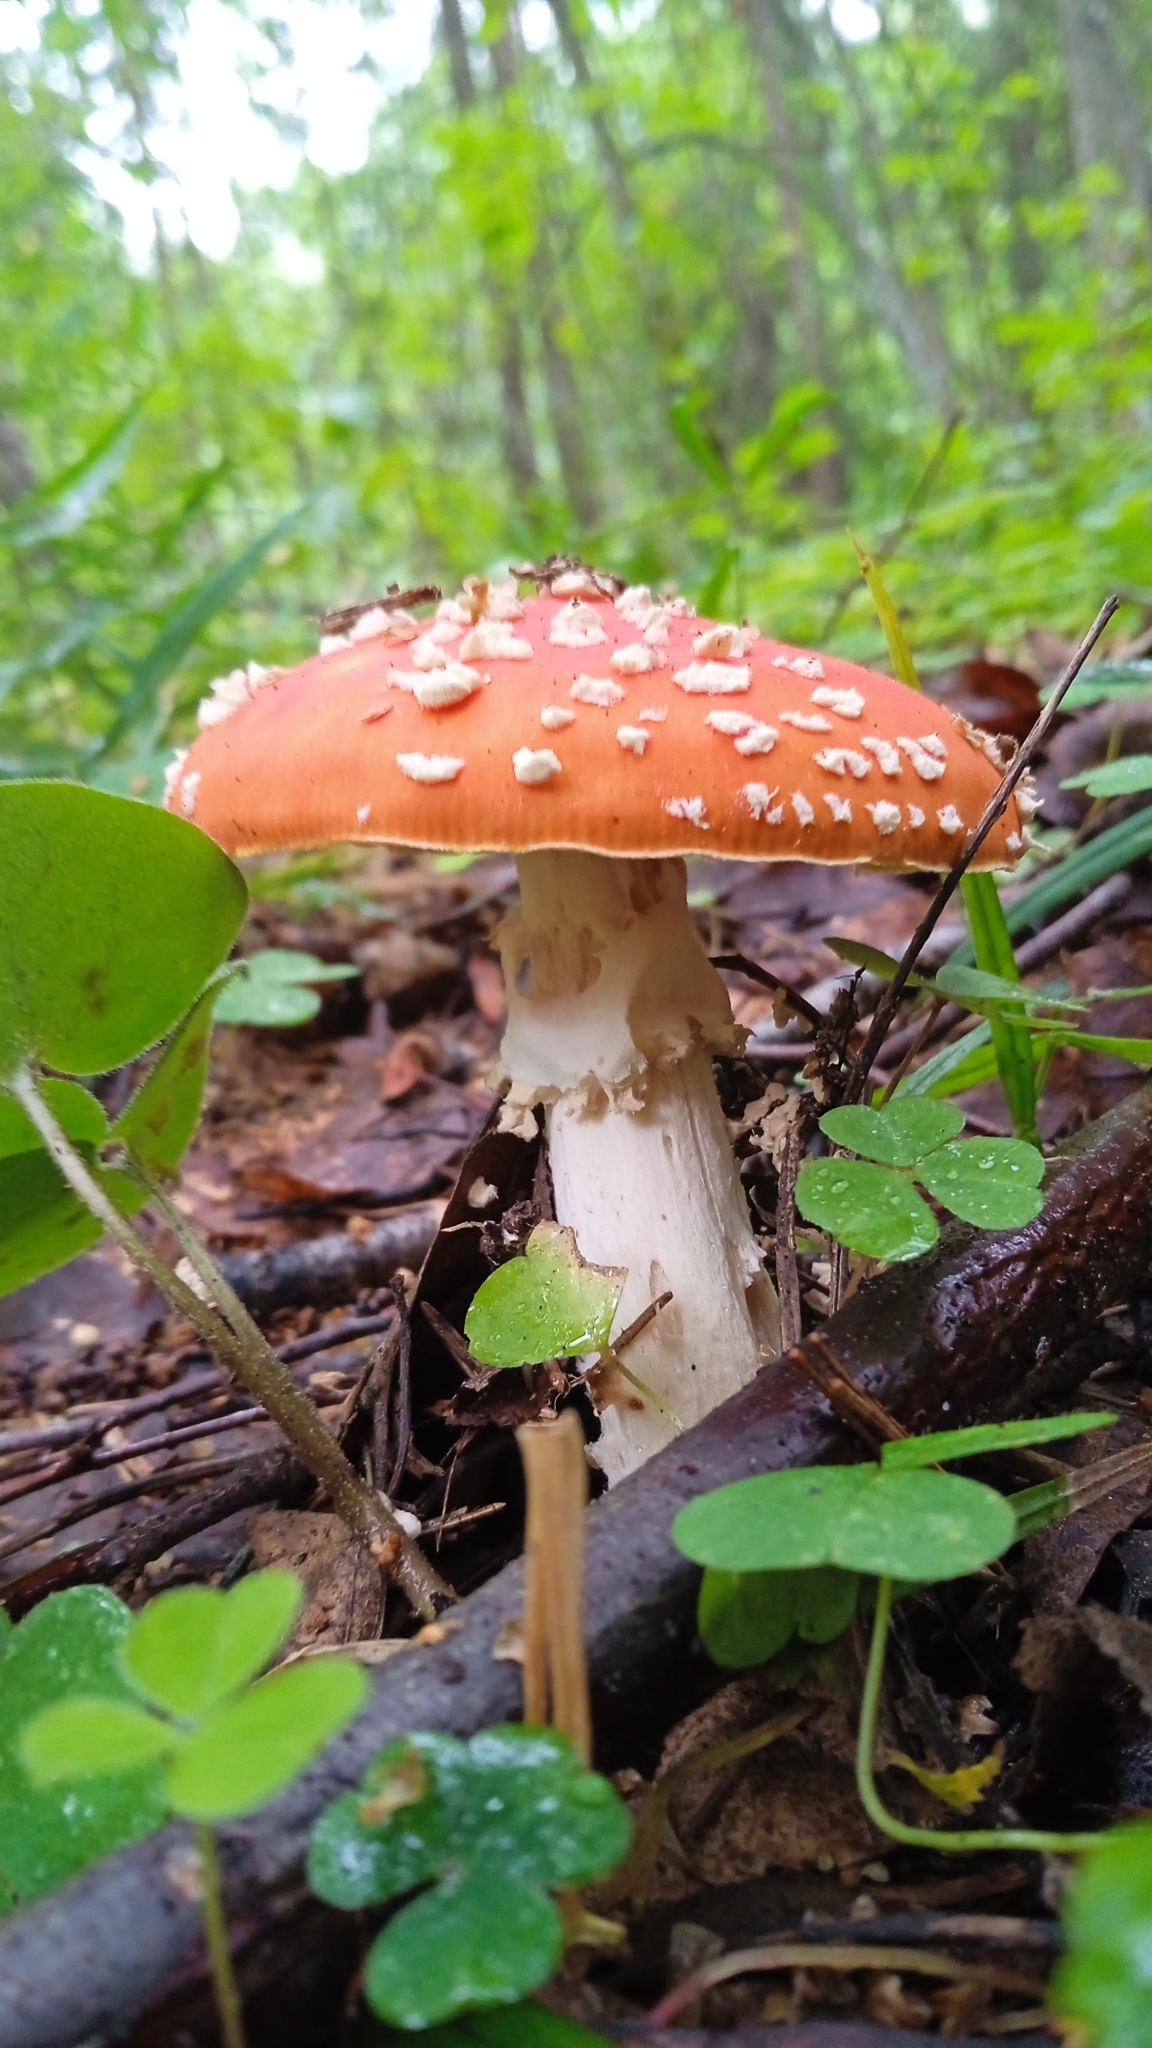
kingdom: Fungi
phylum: Basidiomycota
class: Agaricomycetes
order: Agaricales
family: Amanitaceae
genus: Amanita
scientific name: Amanita muscaria
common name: Fly agaric
